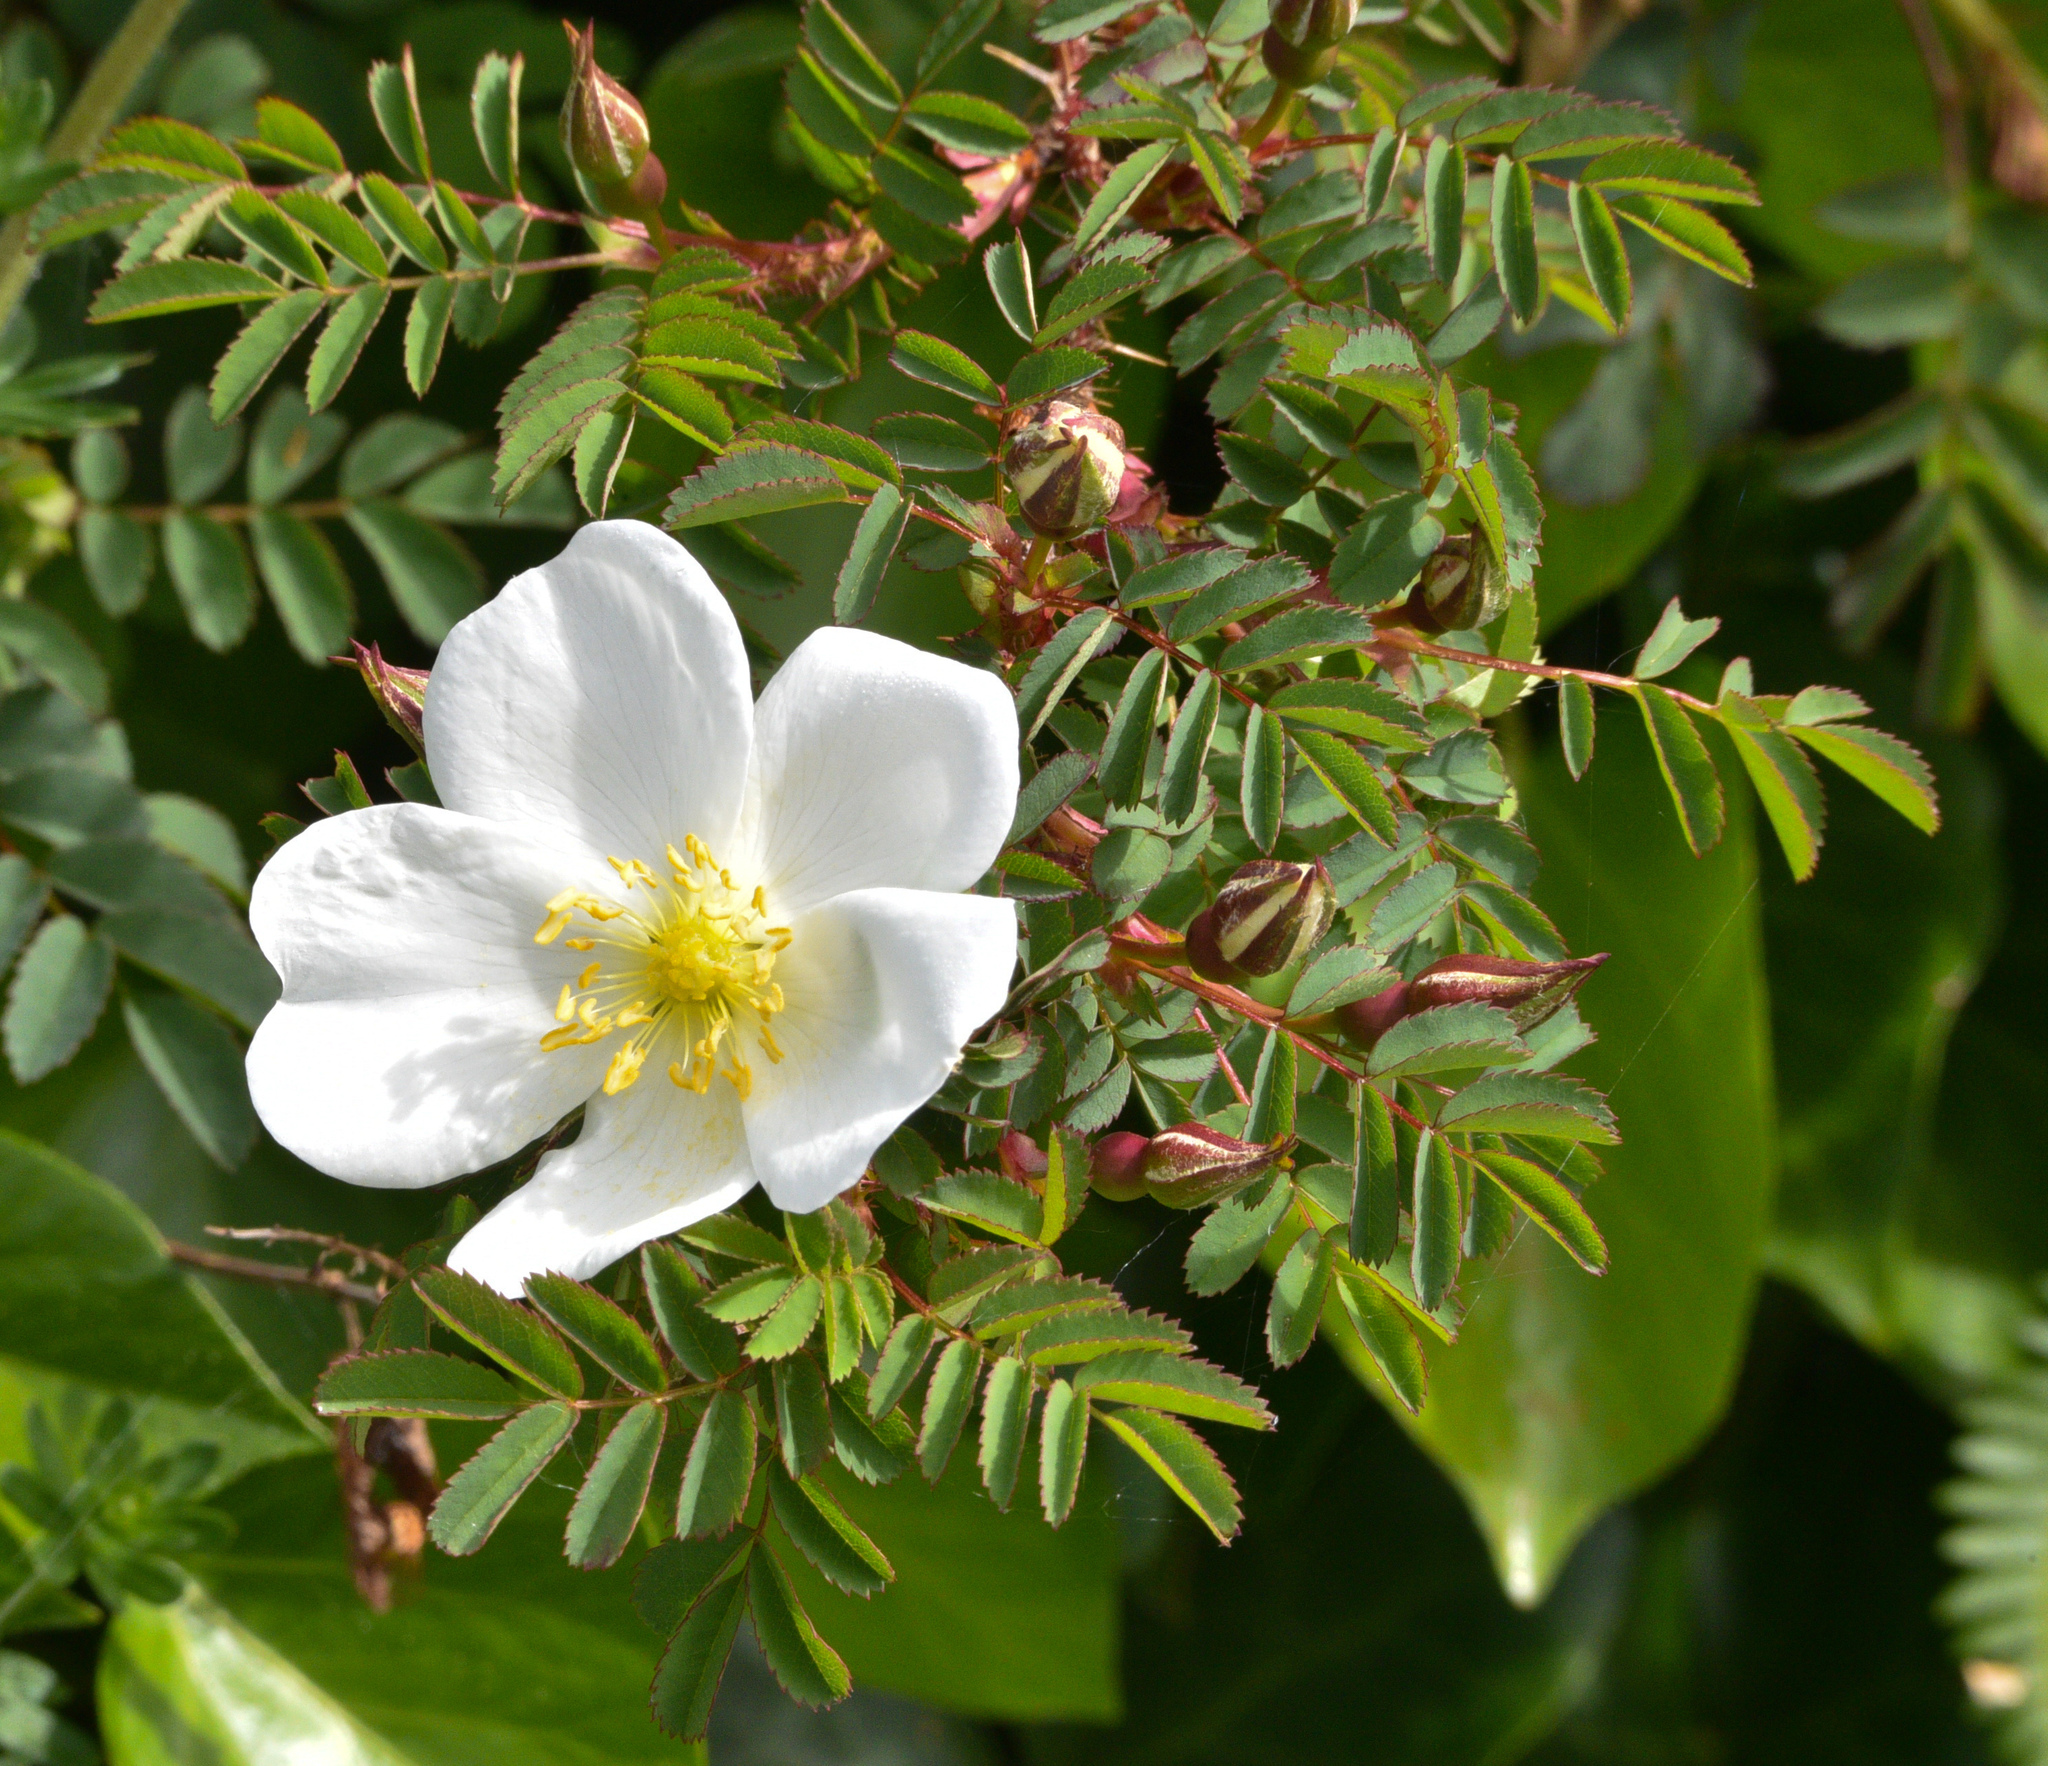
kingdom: Plantae
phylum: Tracheophyta
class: Magnoliopsida
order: Rosales
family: Rosaceae
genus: Rosa
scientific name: Rosa spinosissima
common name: Burnet rose
